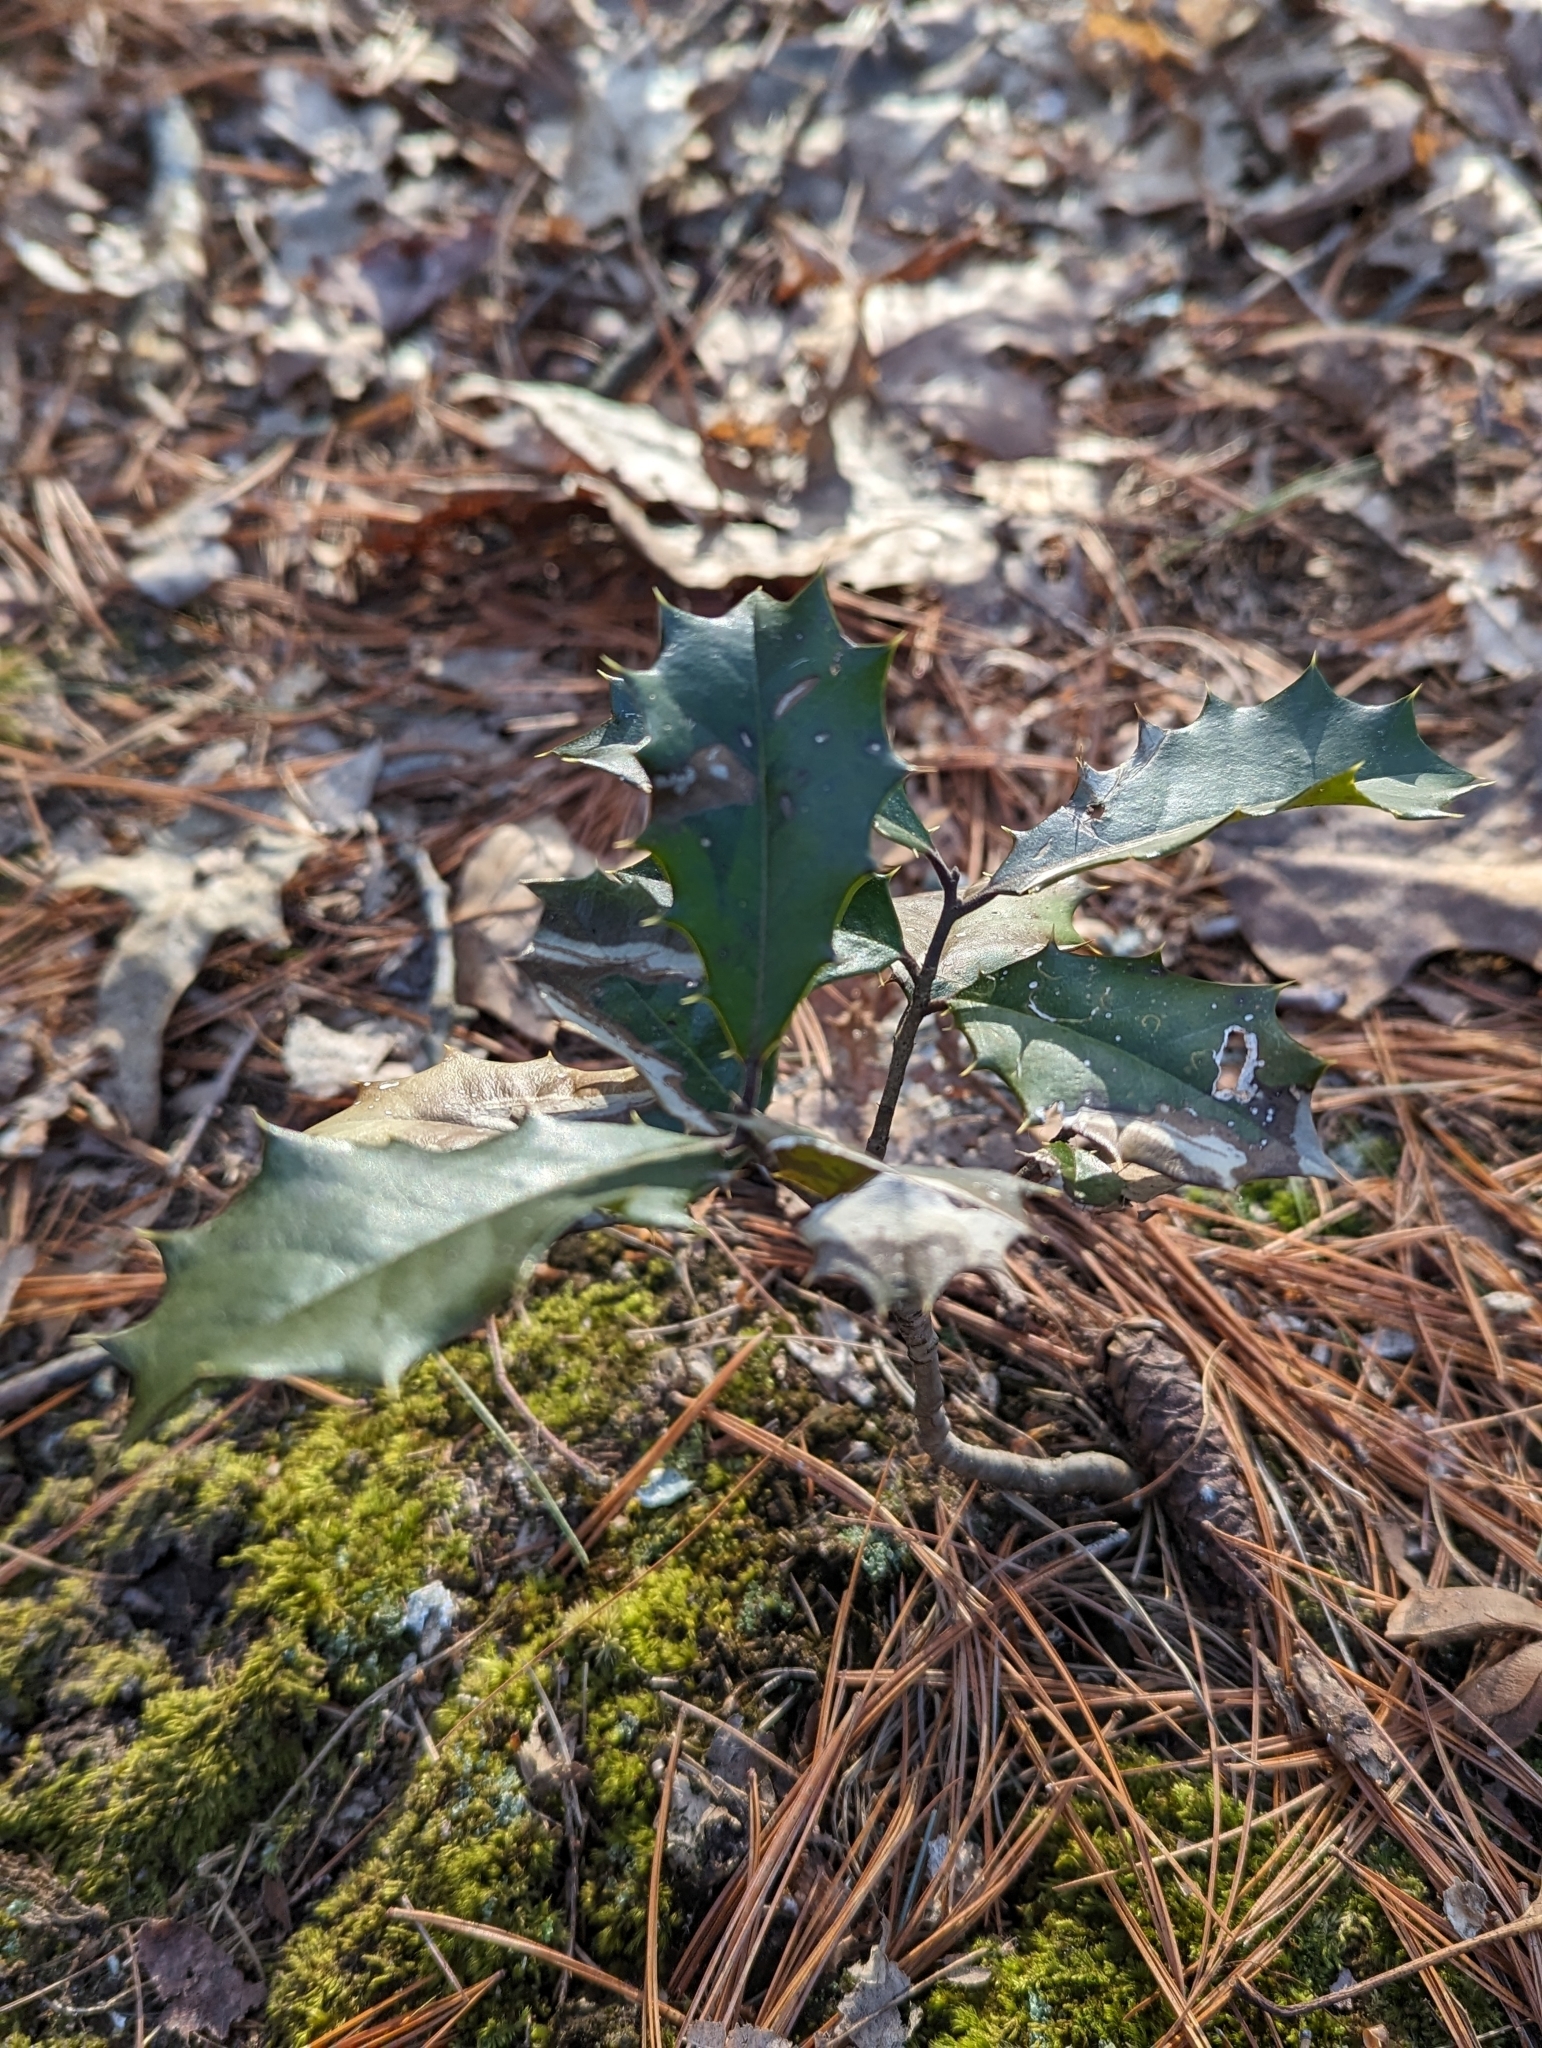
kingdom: Plantae
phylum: Tracheophyta
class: Magnoliopsida
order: Aquifoliales
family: Aquifoliaceae
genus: Ilex
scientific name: Ilex opaca
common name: American holly
